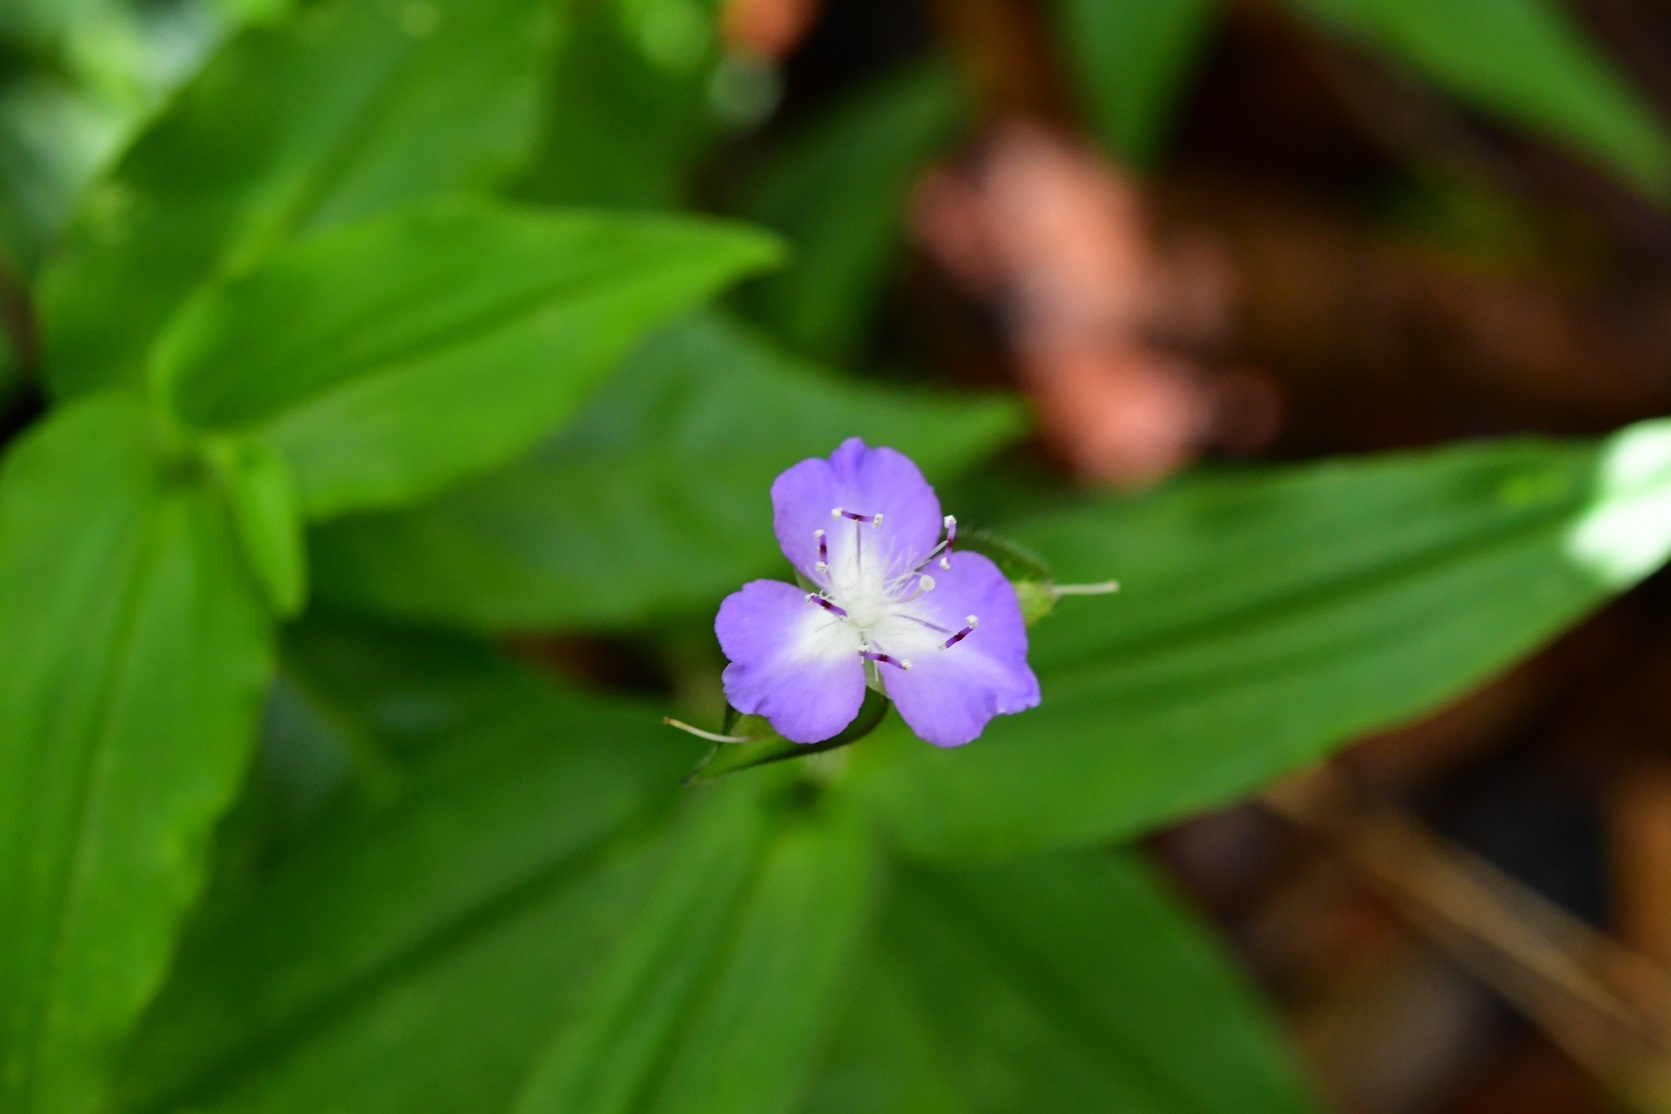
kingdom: Plantae
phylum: Tracheophyta
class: Liliopsida
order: Commelinales
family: Commelinaceae
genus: Tradescantia
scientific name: Tradescantia commelinoides
